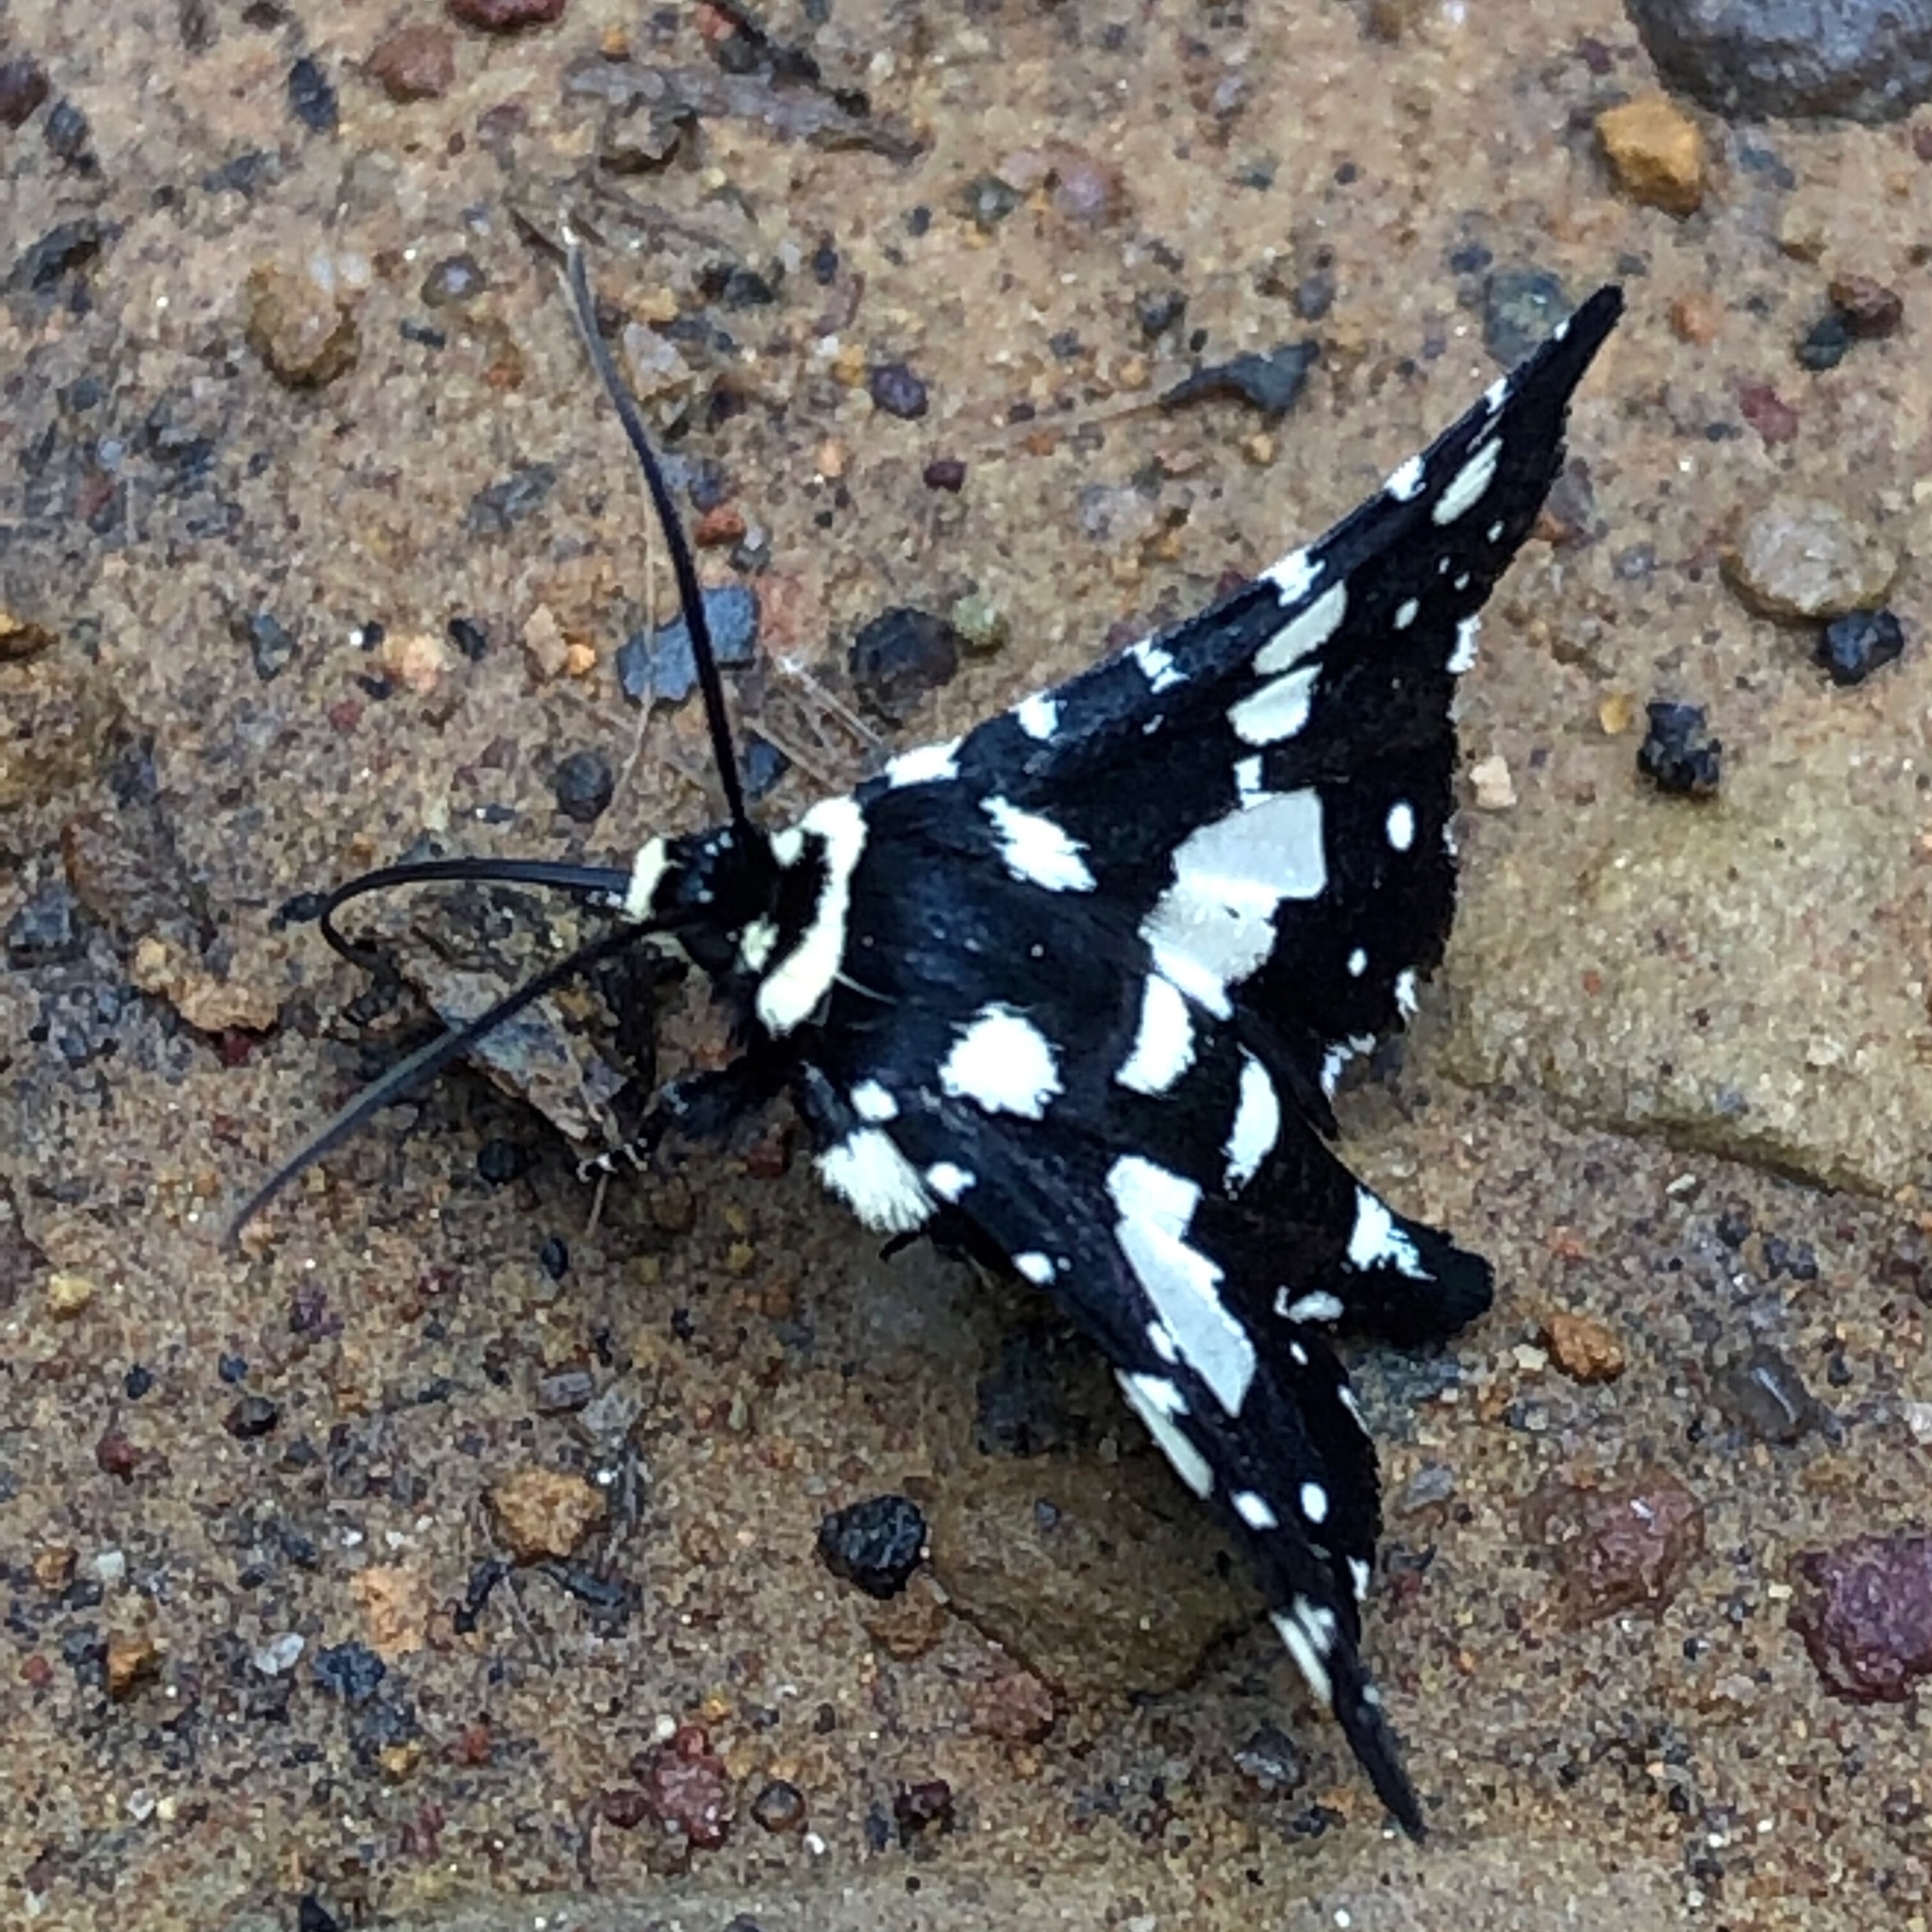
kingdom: Animalia
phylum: Arthropoda
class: Insecta
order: Lepidoptera
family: Thyrididae
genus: Pseudothyris
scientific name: Pseudothyris sepulchralis
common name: Mournful thyris moth
